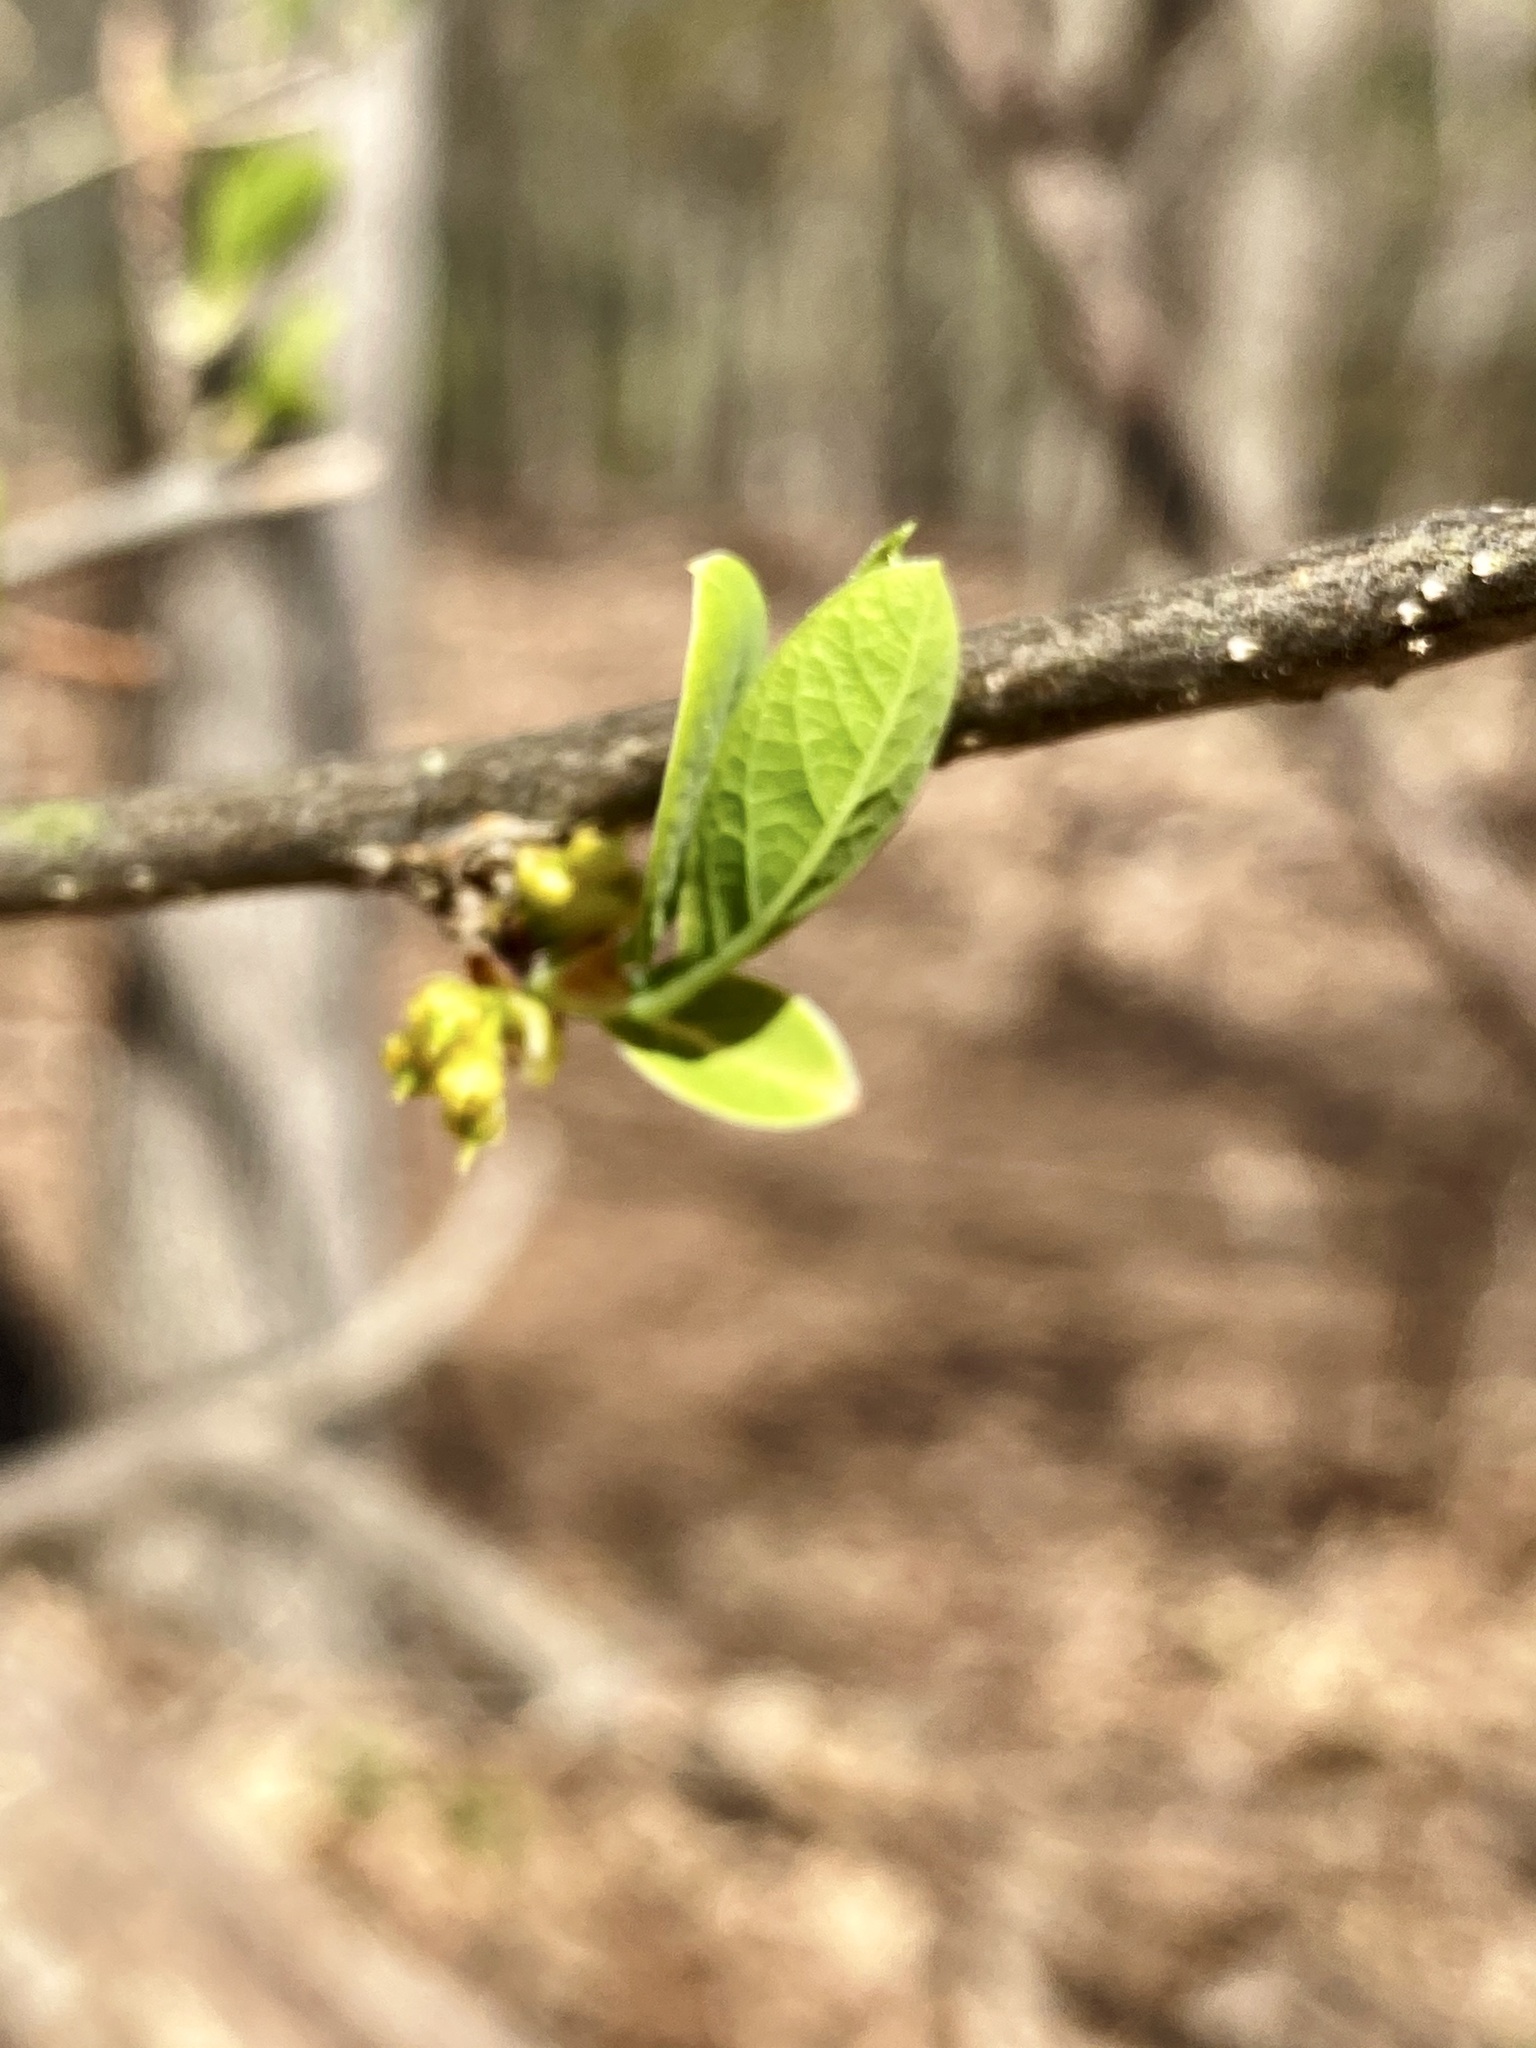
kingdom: Plantae
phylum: Tracheophyta
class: Magnoliopsida
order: Laurales
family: Lauraceae
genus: Lindera
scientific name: Lindera benzoin
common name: Spicebush
